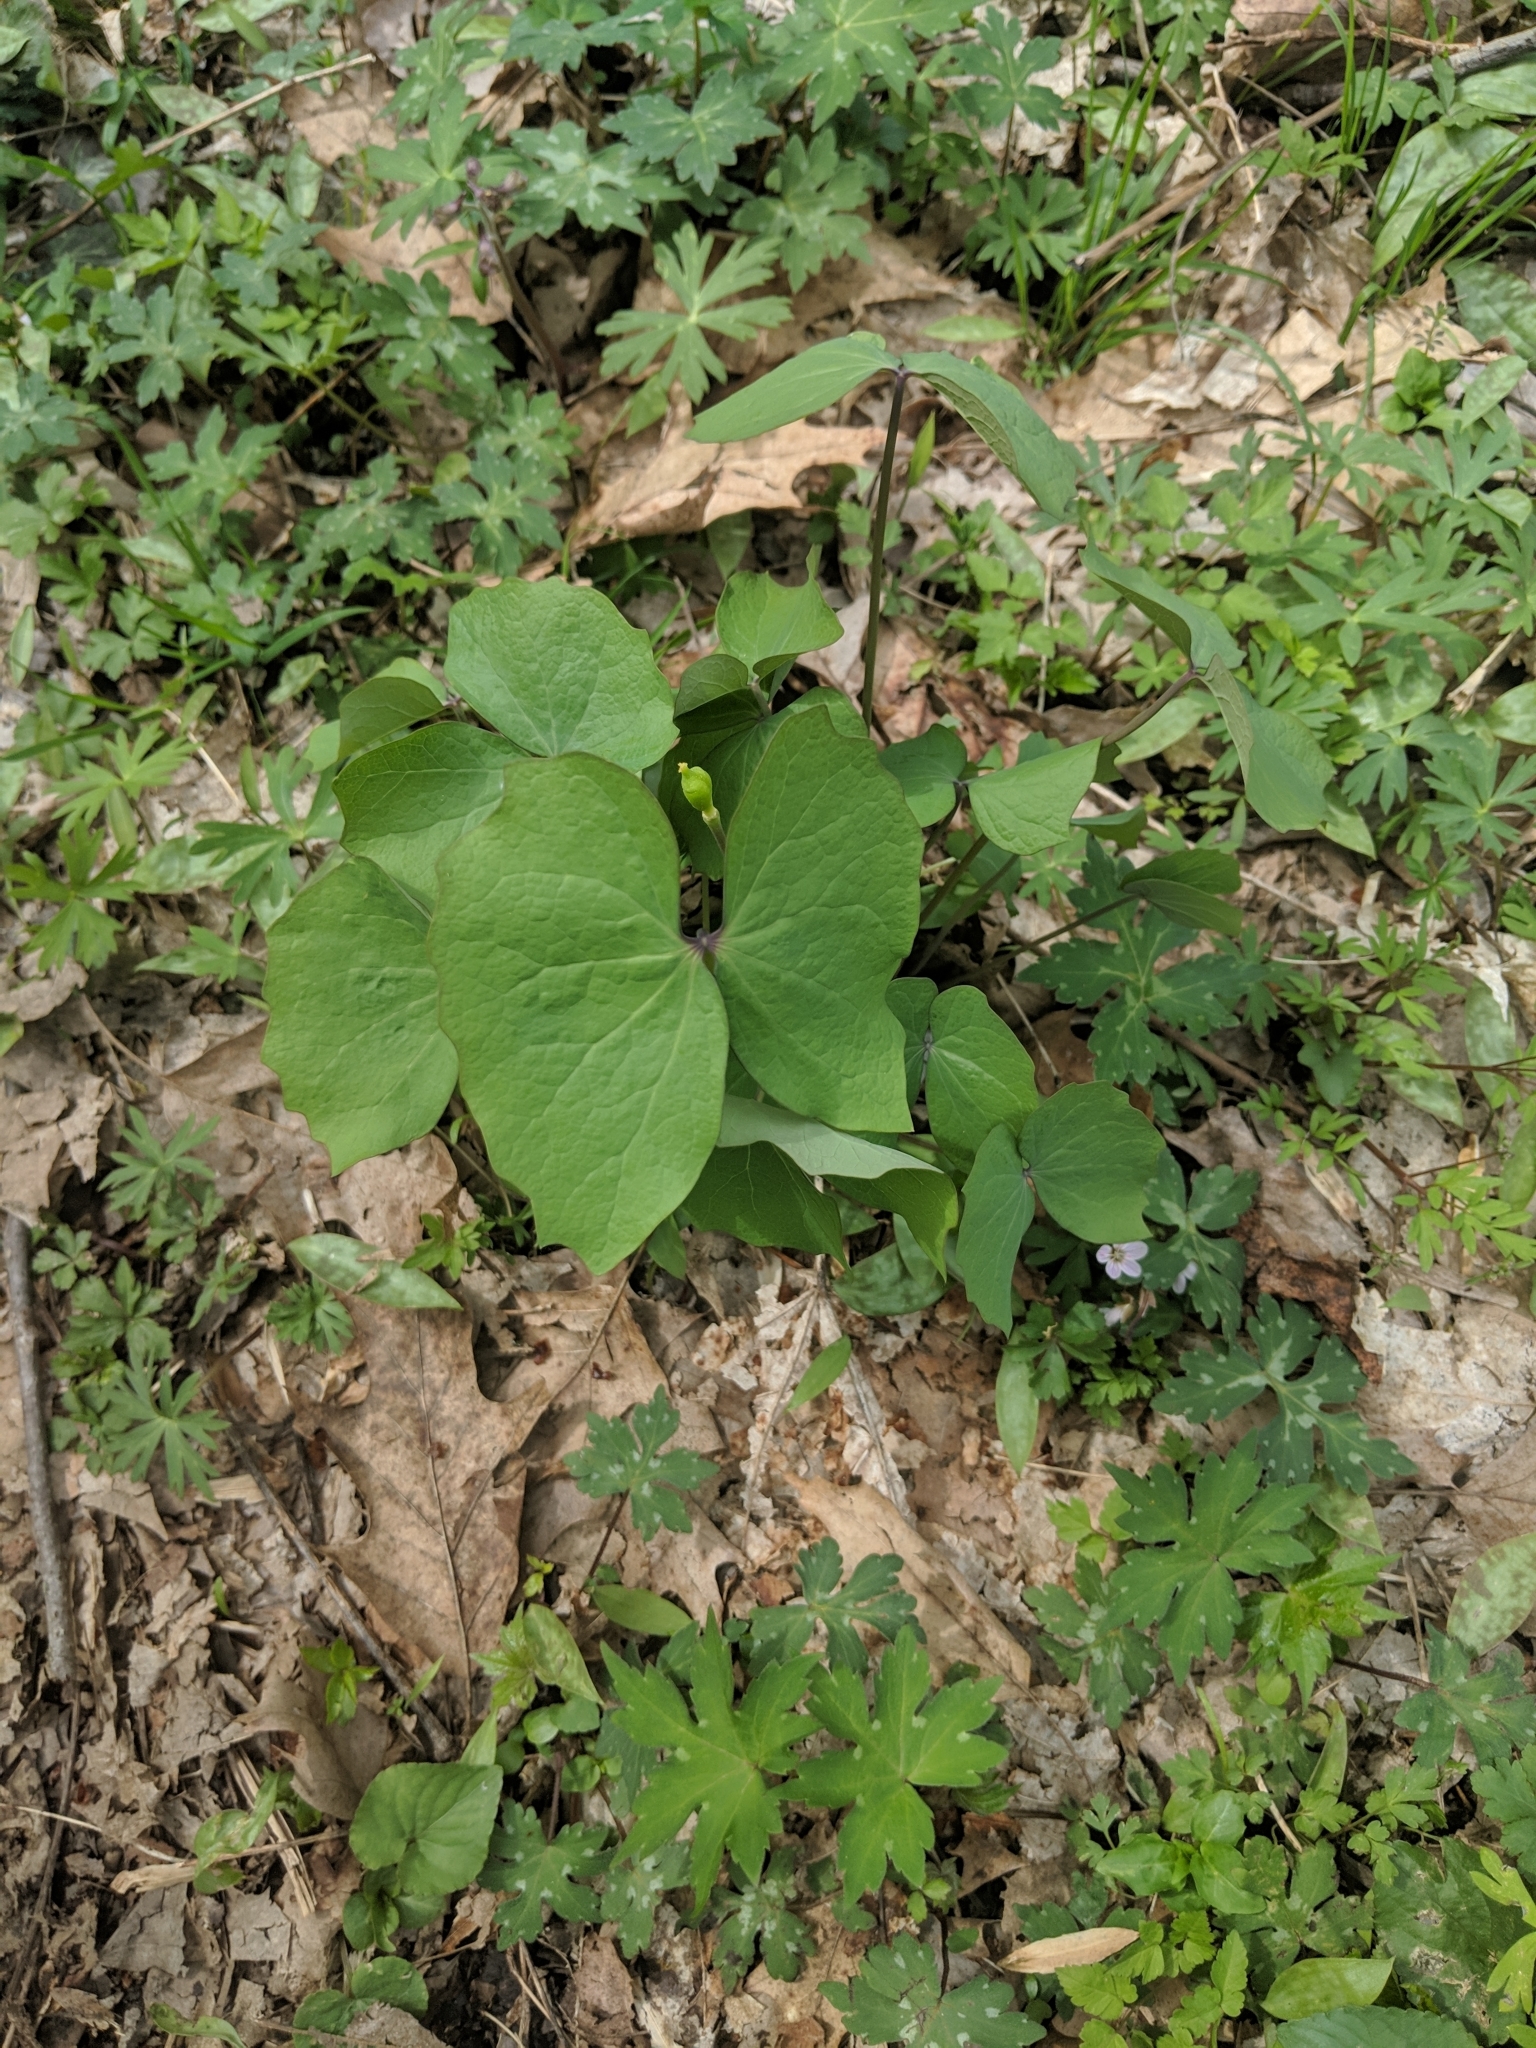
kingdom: Plantae
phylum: Tracheophyta
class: Magnoliopsida
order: Ranunculales
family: Berberidaceae
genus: Jeffersonia
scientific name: Jeffersonia diphylla
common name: Rheumatism-root
